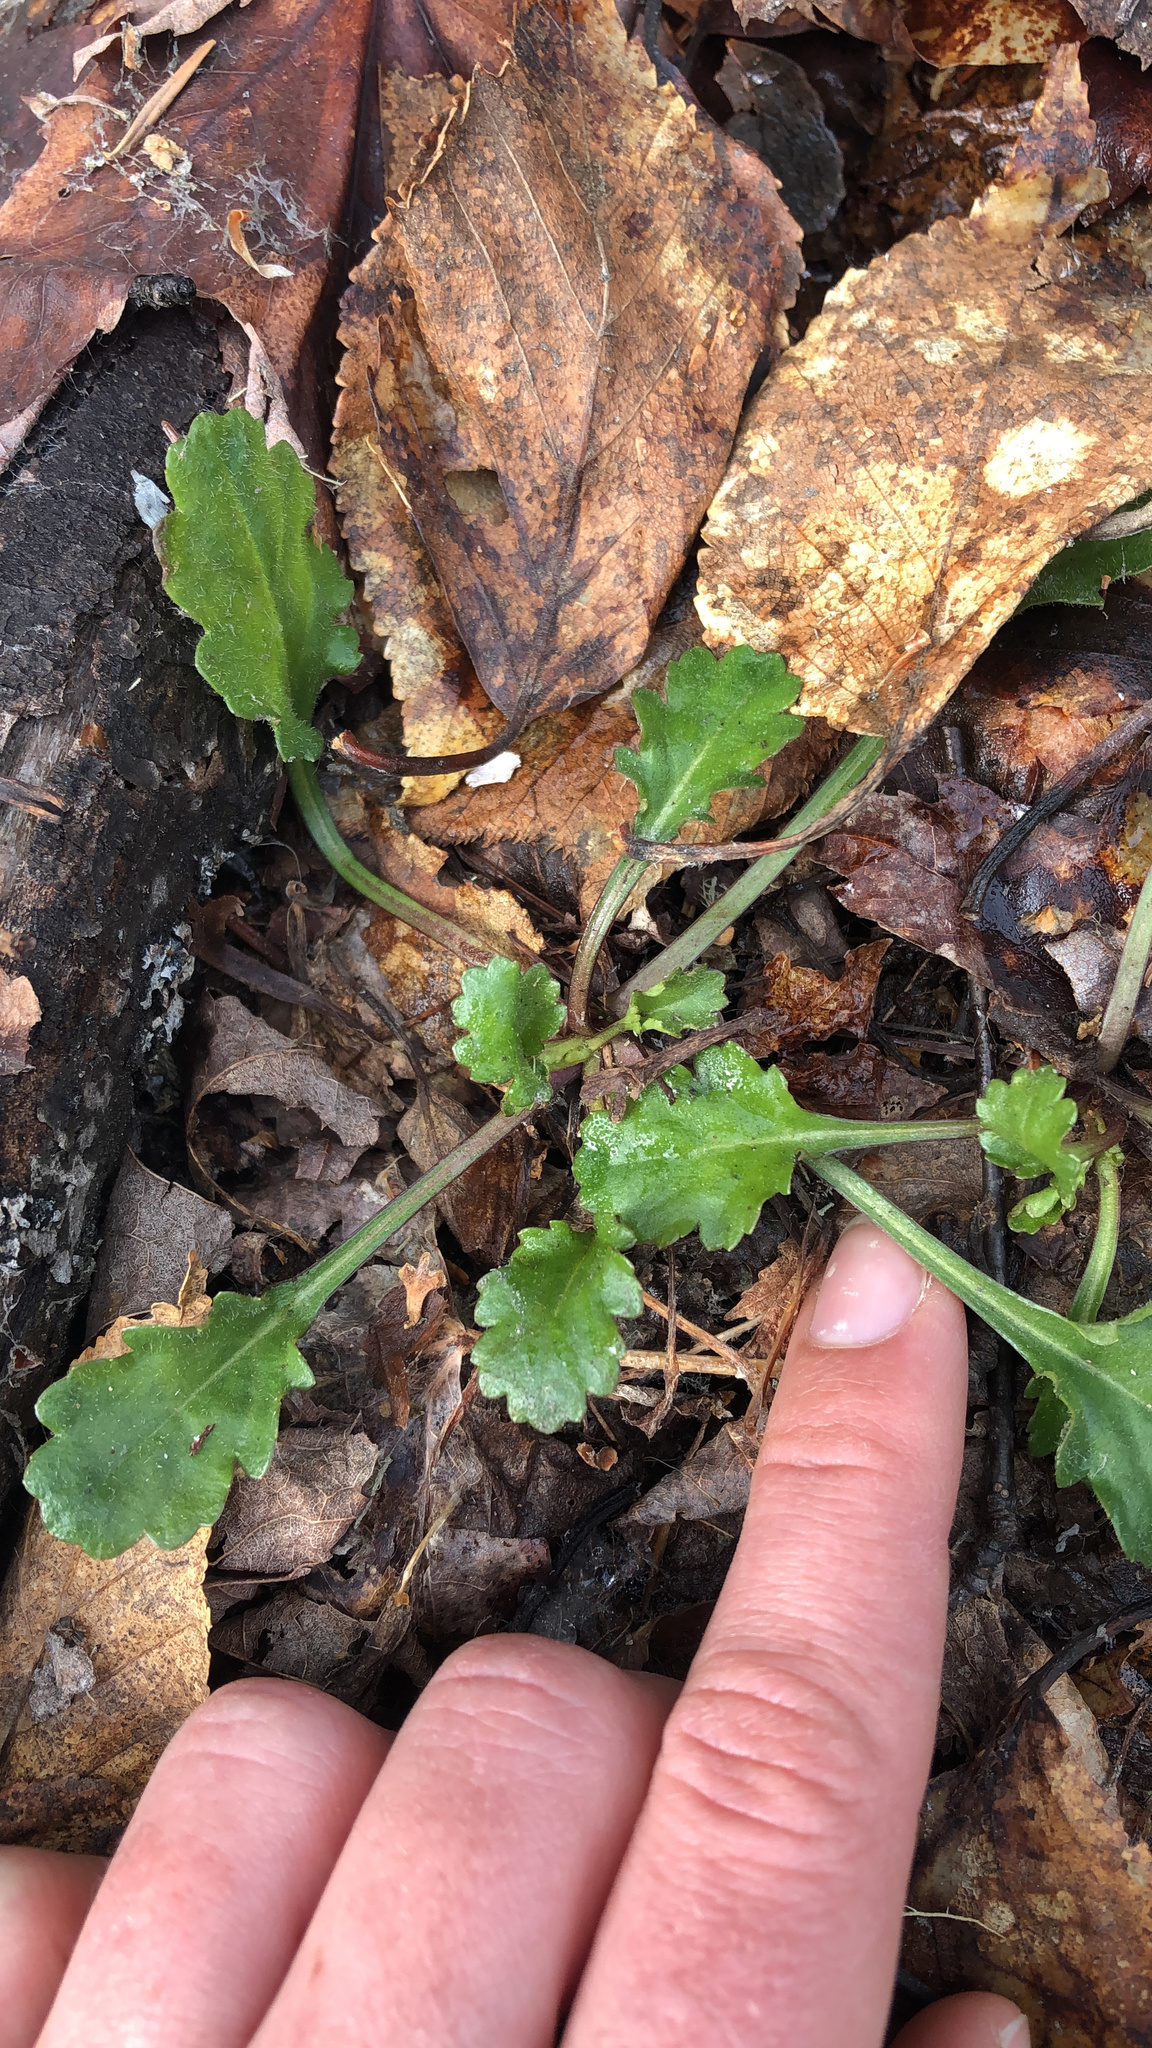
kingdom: Plantae
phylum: Tracheophyta
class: Magnoliopsida
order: Asterales
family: Asteraceae
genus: Leucanthemum
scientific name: Leucanthemum vulgare
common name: Oxeye daisy
